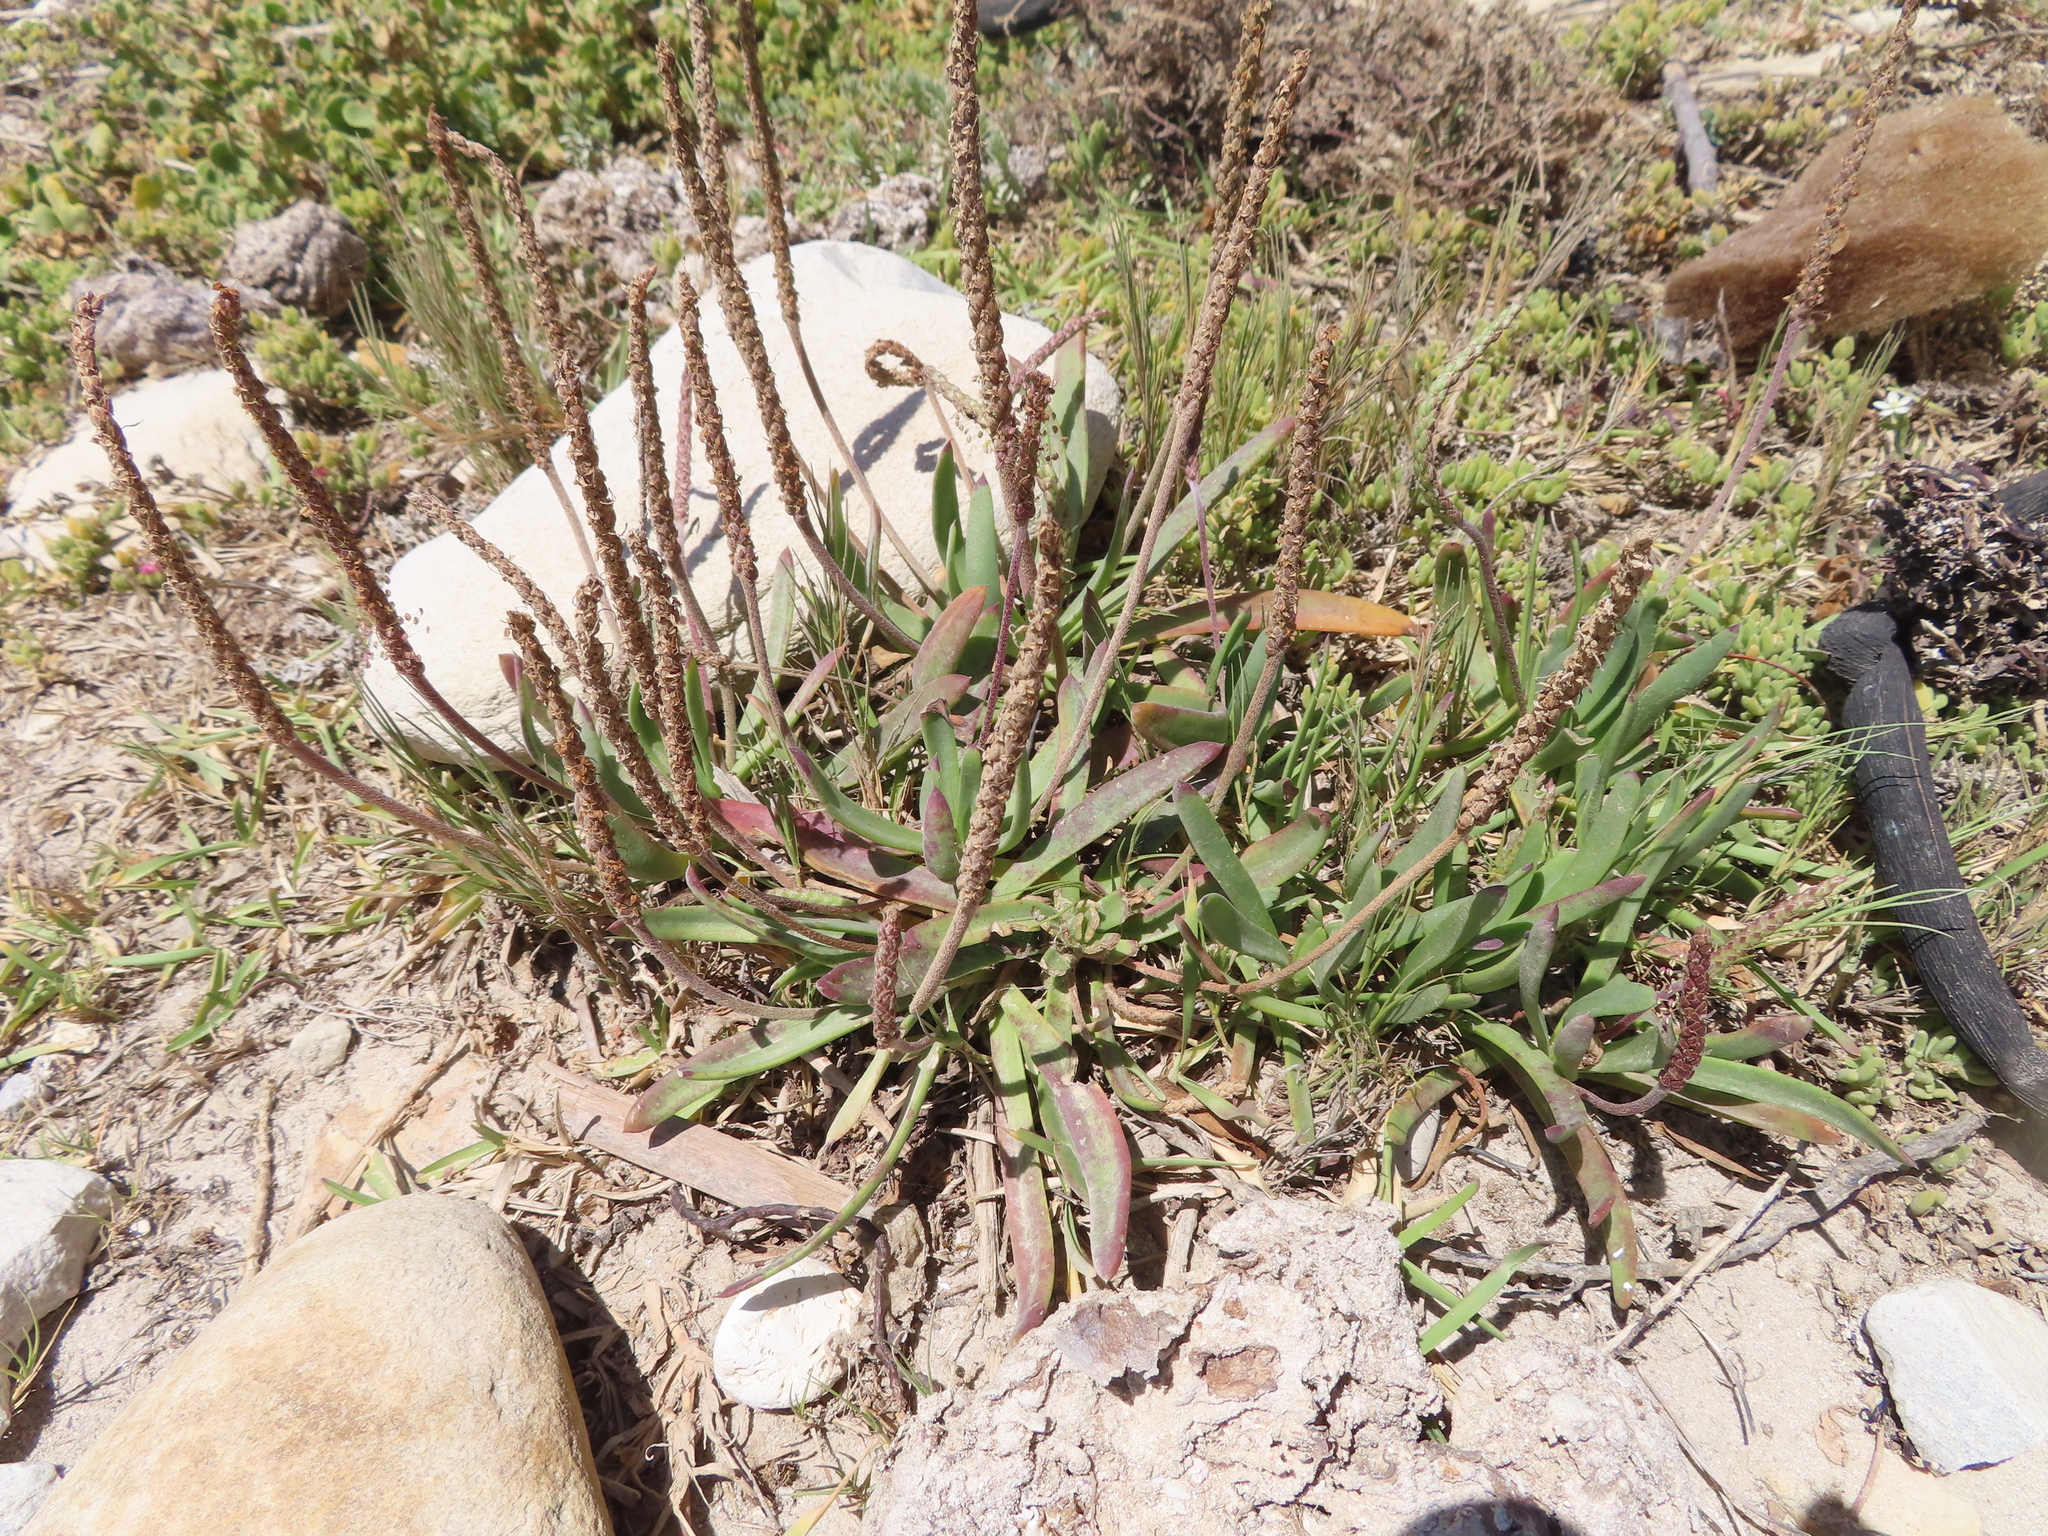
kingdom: Plantae
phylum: Tracheophyta
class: Magnoliopsida
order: Lamiales
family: Plantaginaceae
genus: Plantago
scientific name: Plantago coronopus
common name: Buck's-horn plantain
